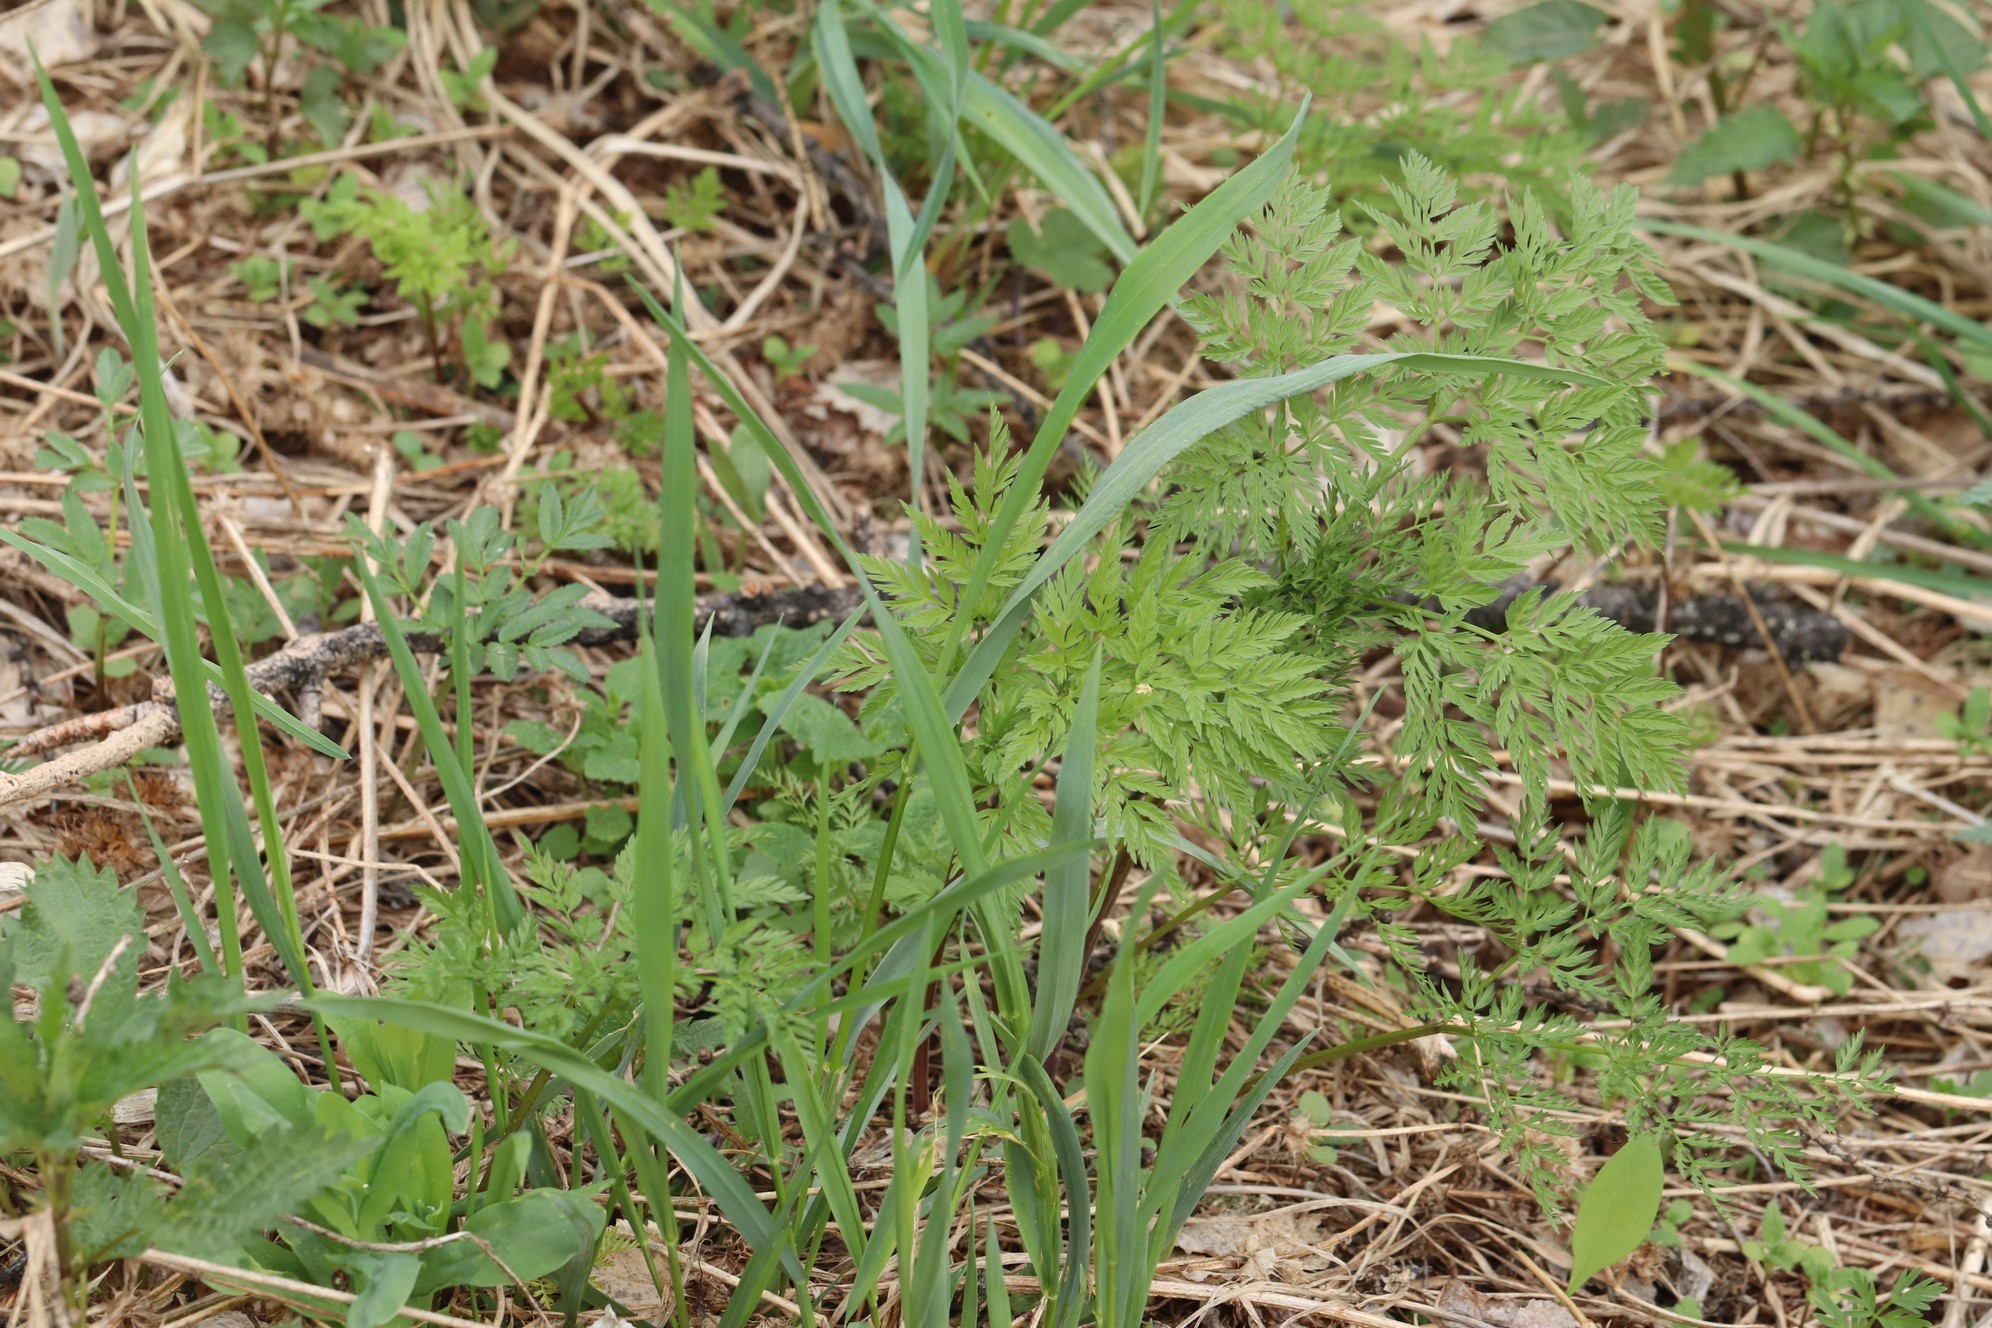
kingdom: Plantae
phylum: Tracheophyta
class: Magnoliopsida
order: Apiales
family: Apiaceae
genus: Anthriscus
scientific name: Anthriscus sylvestris
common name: Cow parsley
